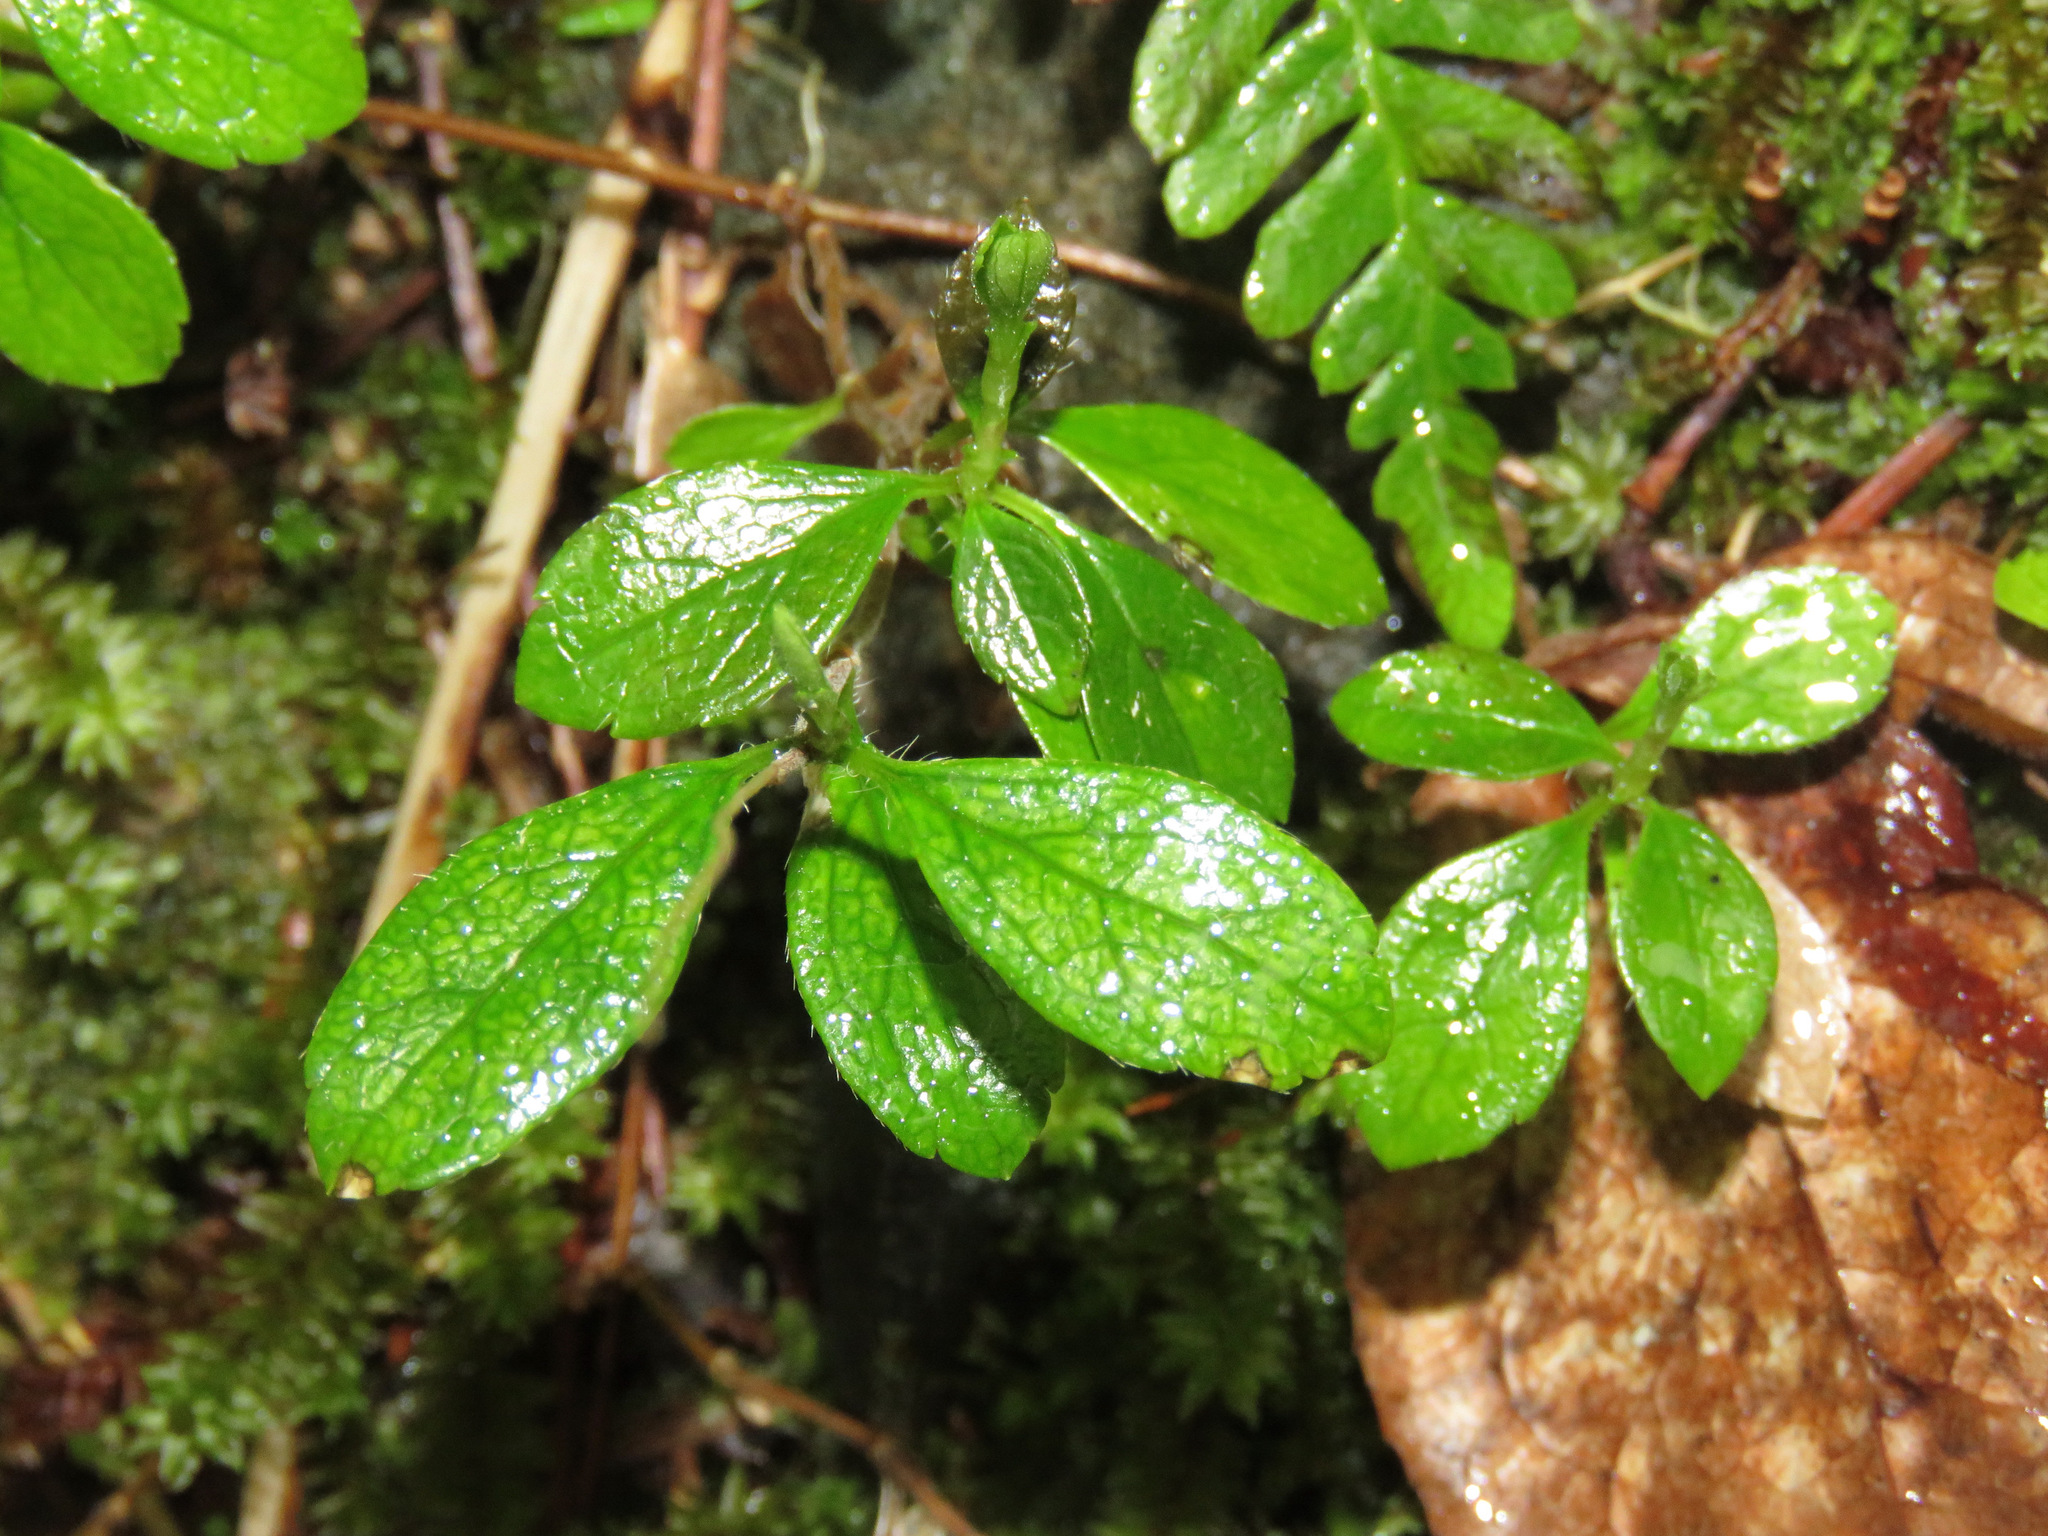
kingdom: Plantae
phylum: Tracheophyta
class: Magnoliopsida
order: Dipsacales
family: Caprifoliaceae
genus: Linnaea
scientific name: Linnaea borealis
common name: Twinflower
